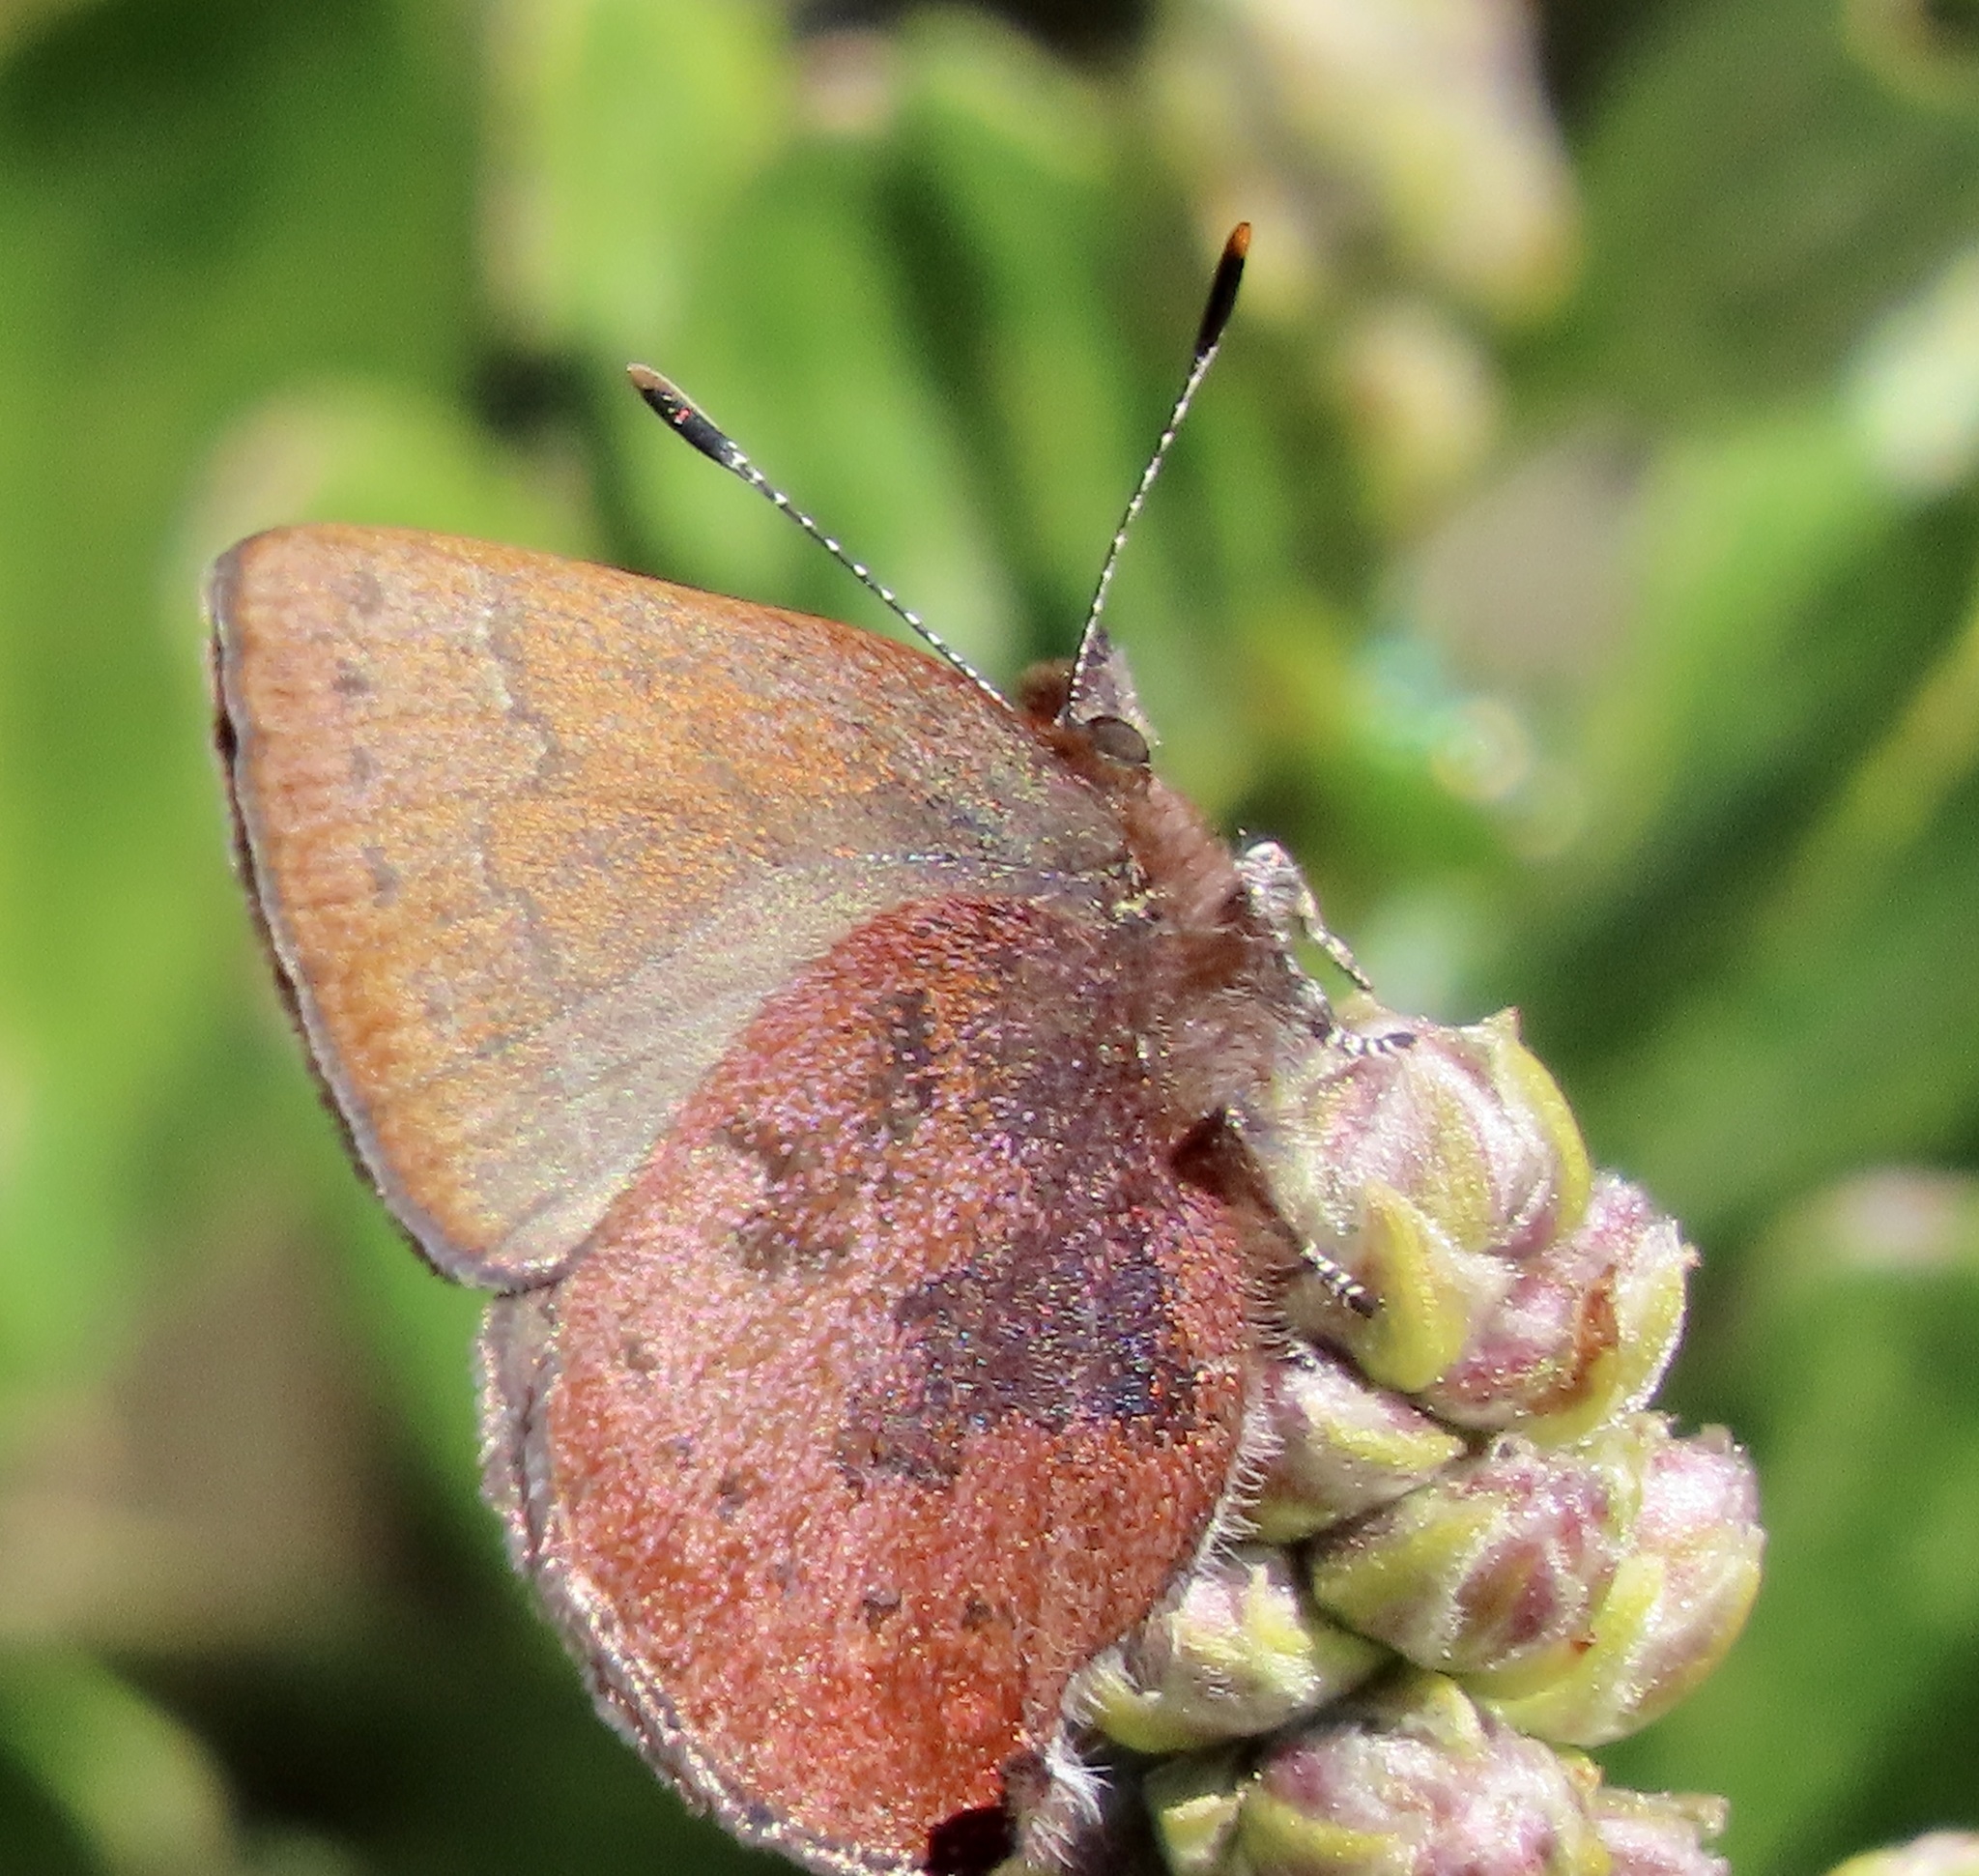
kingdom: Animalia
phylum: Arthropoda
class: Insecta
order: Lepidoptera
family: Lycaenidae
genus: Incisalia
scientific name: Incisalia irioides
